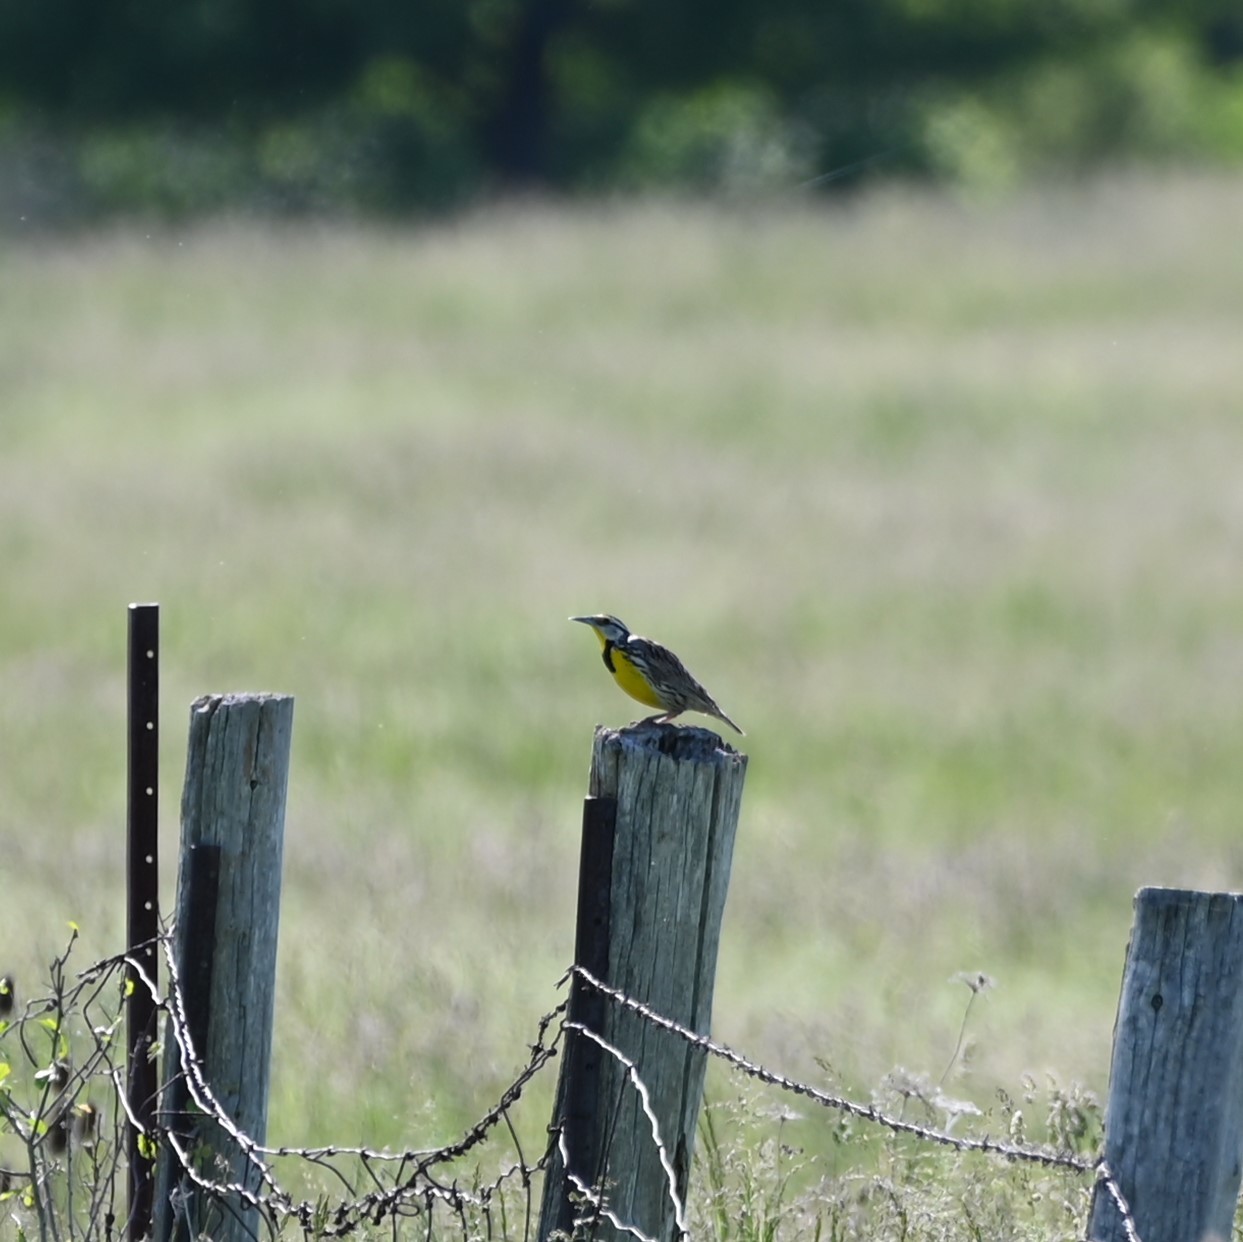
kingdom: Animalia
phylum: Chordata
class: Aves
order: Passeriformes
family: Icteridae
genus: Sturnella
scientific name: Sturnella magna
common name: Eastern meadowlark
